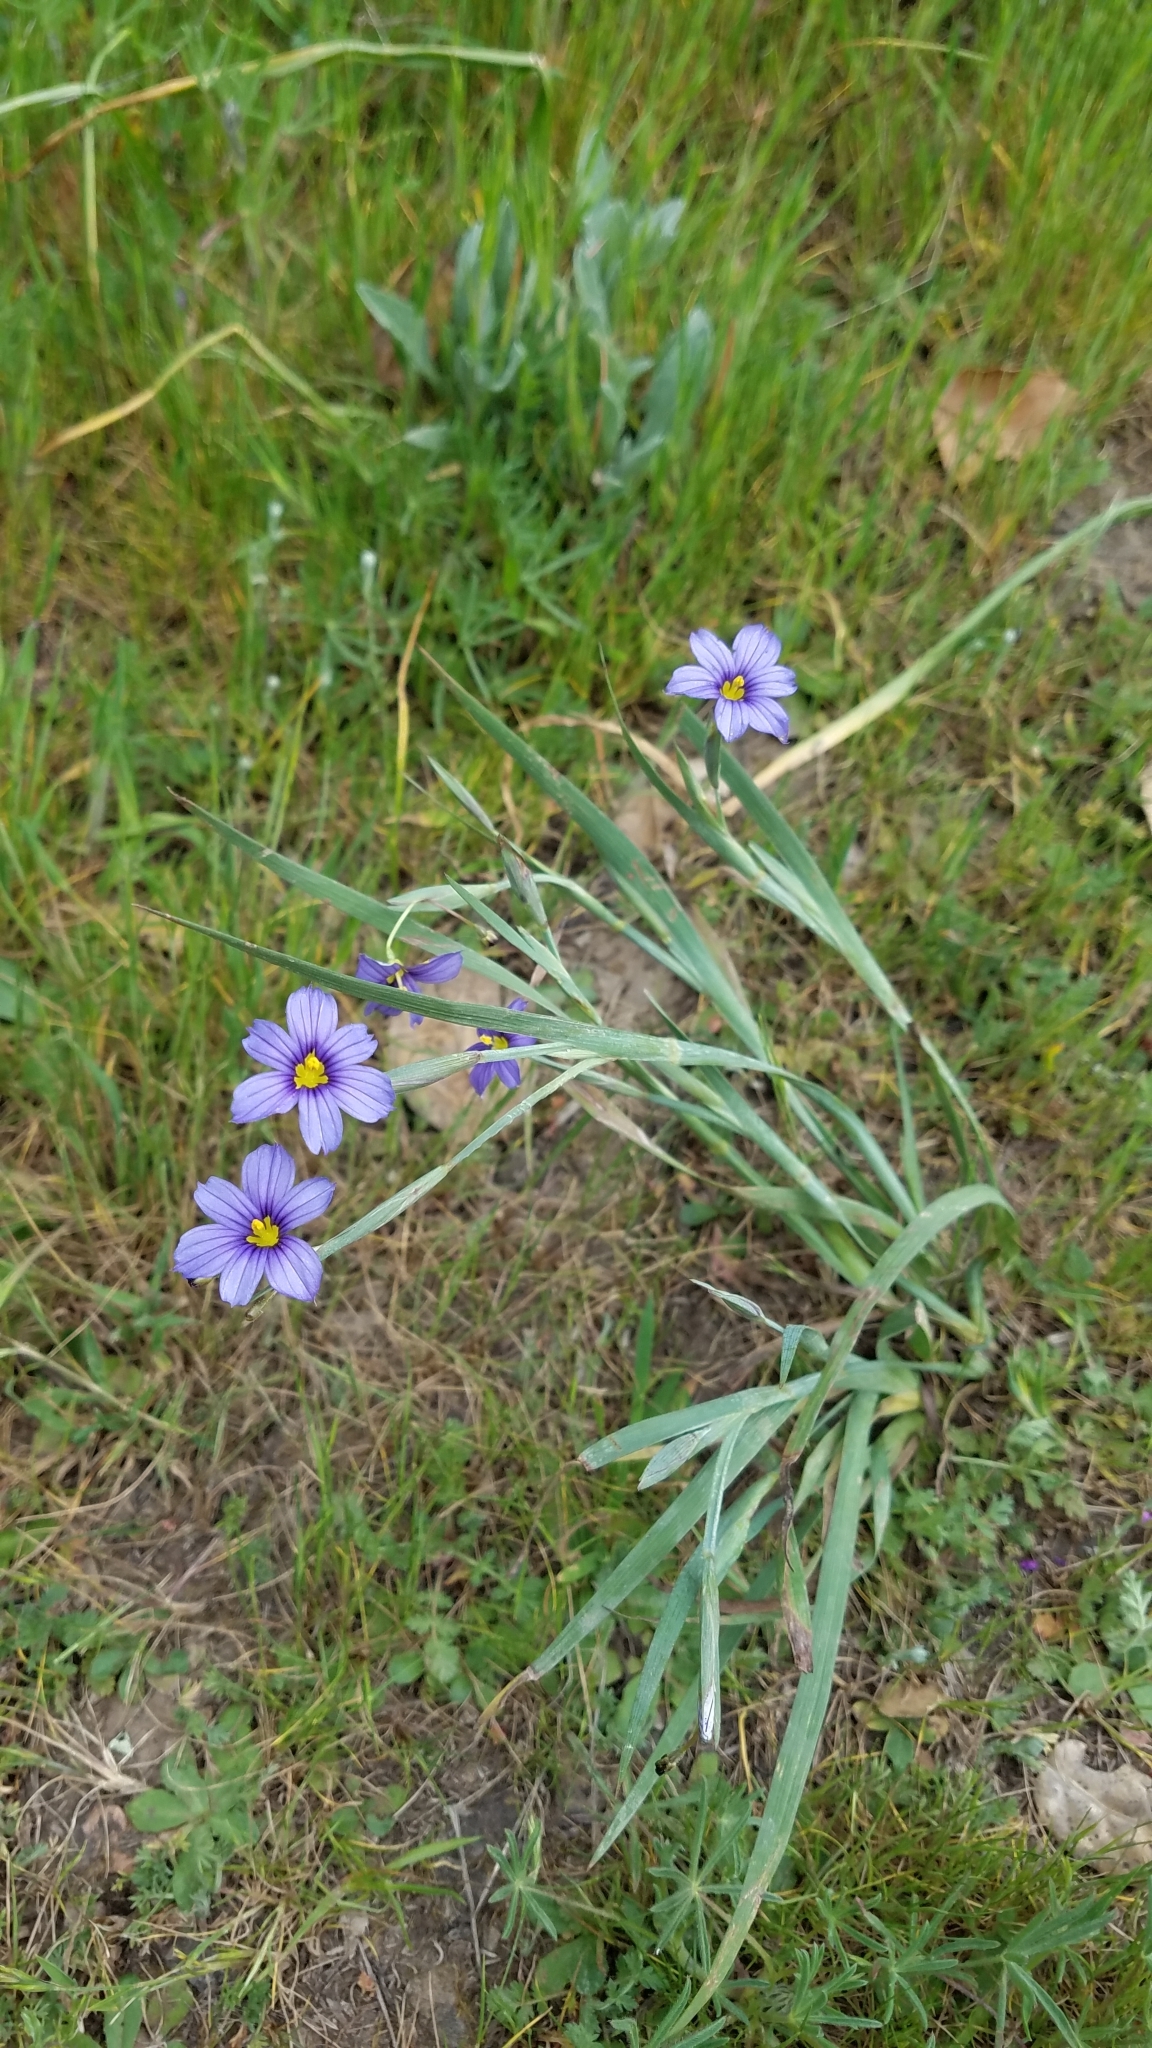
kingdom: Plantae
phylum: Tracheophyta
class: Liliopsida
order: Asparagales
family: Iridaceae
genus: Sisyrinchium
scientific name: Sisyrinchium bellum
